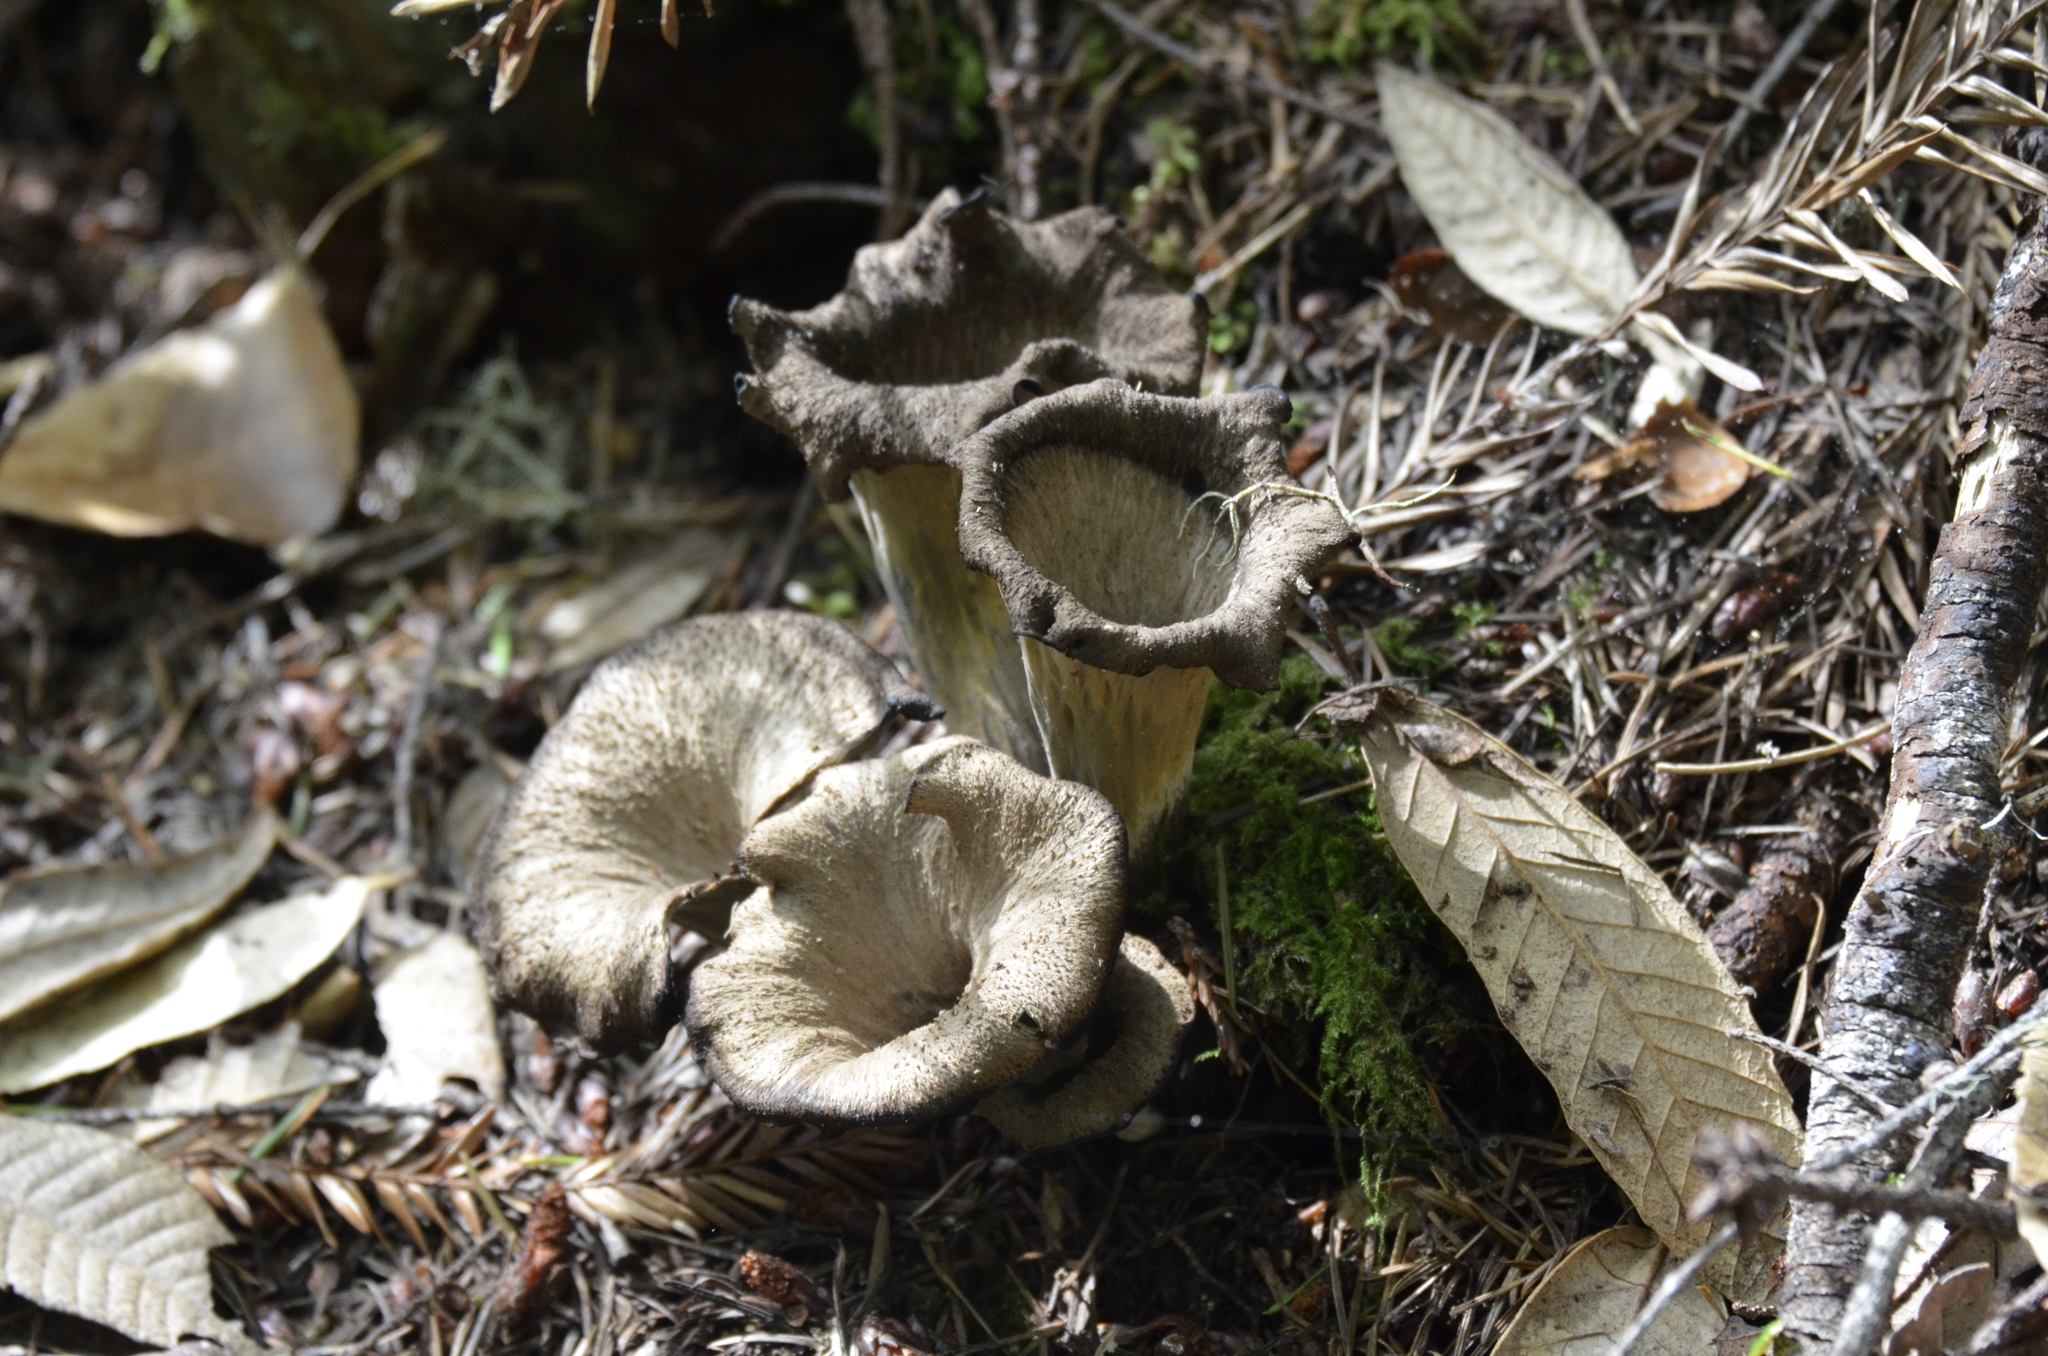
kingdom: Fungi
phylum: Basidiomycota
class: Agaricomycetes
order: Cantharellales
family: Hydnaceae
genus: Craterellus
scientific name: Craterellus calicornucopioides
